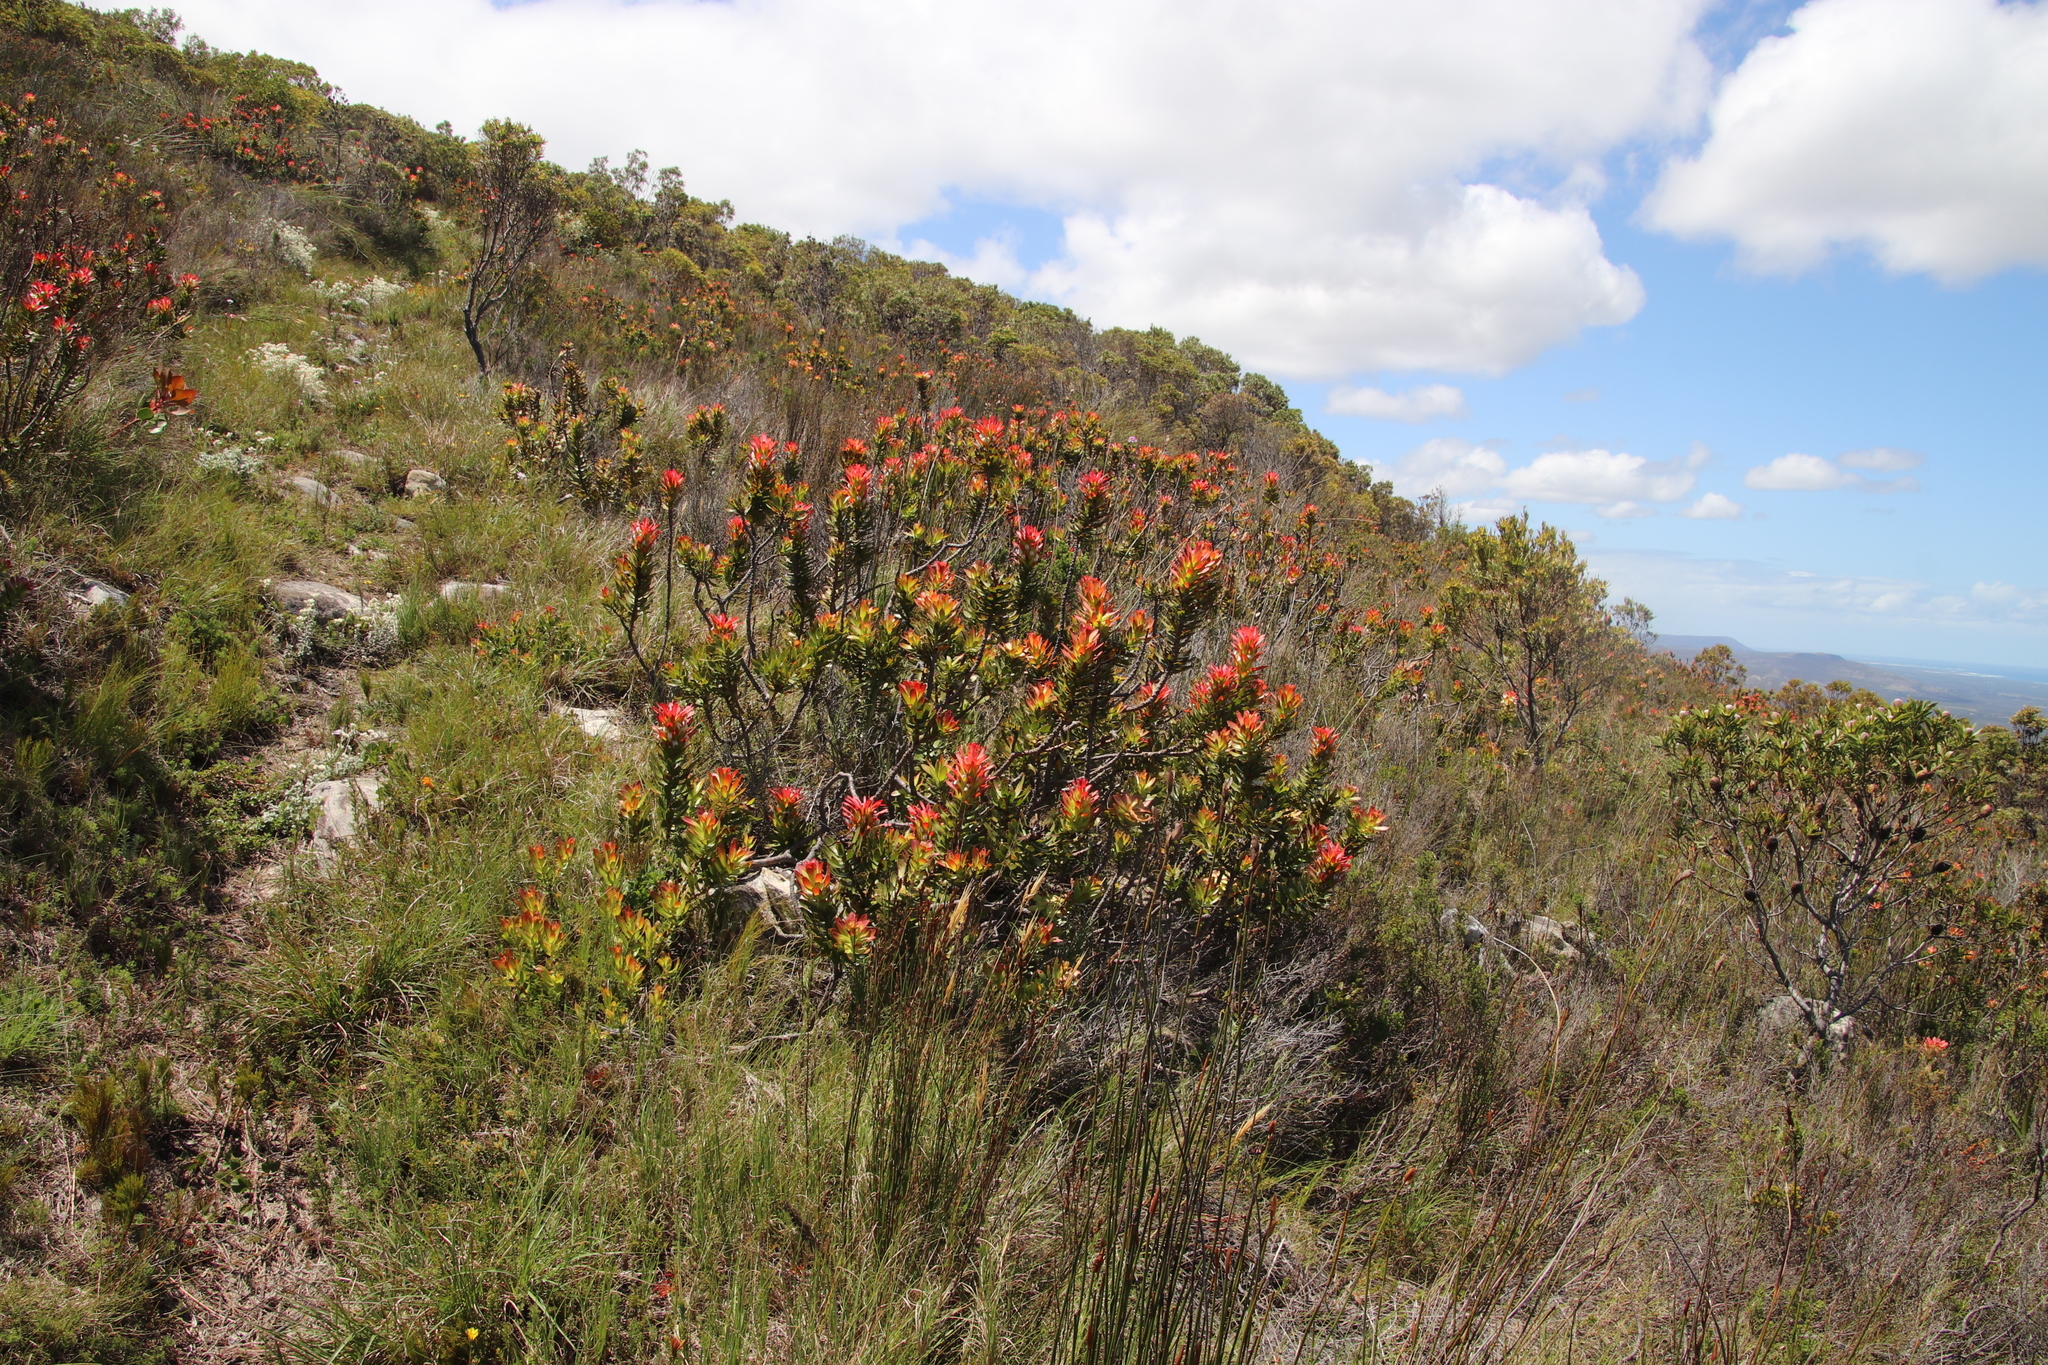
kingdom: Plantae
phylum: Tracheophyta
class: Magnoliopsida
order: Proteales
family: Proteaceae
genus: Mimetes
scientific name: Mimetes cucullatus
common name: Common pagoda
